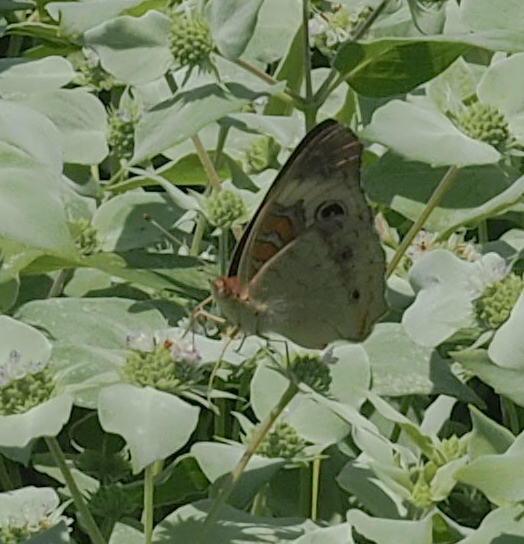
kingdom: Animalia
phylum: Arthropoda
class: Insecta
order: Lepidoptera
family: Nymphalidae
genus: Junonia
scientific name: Junonia coenia
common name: Common buckeye
